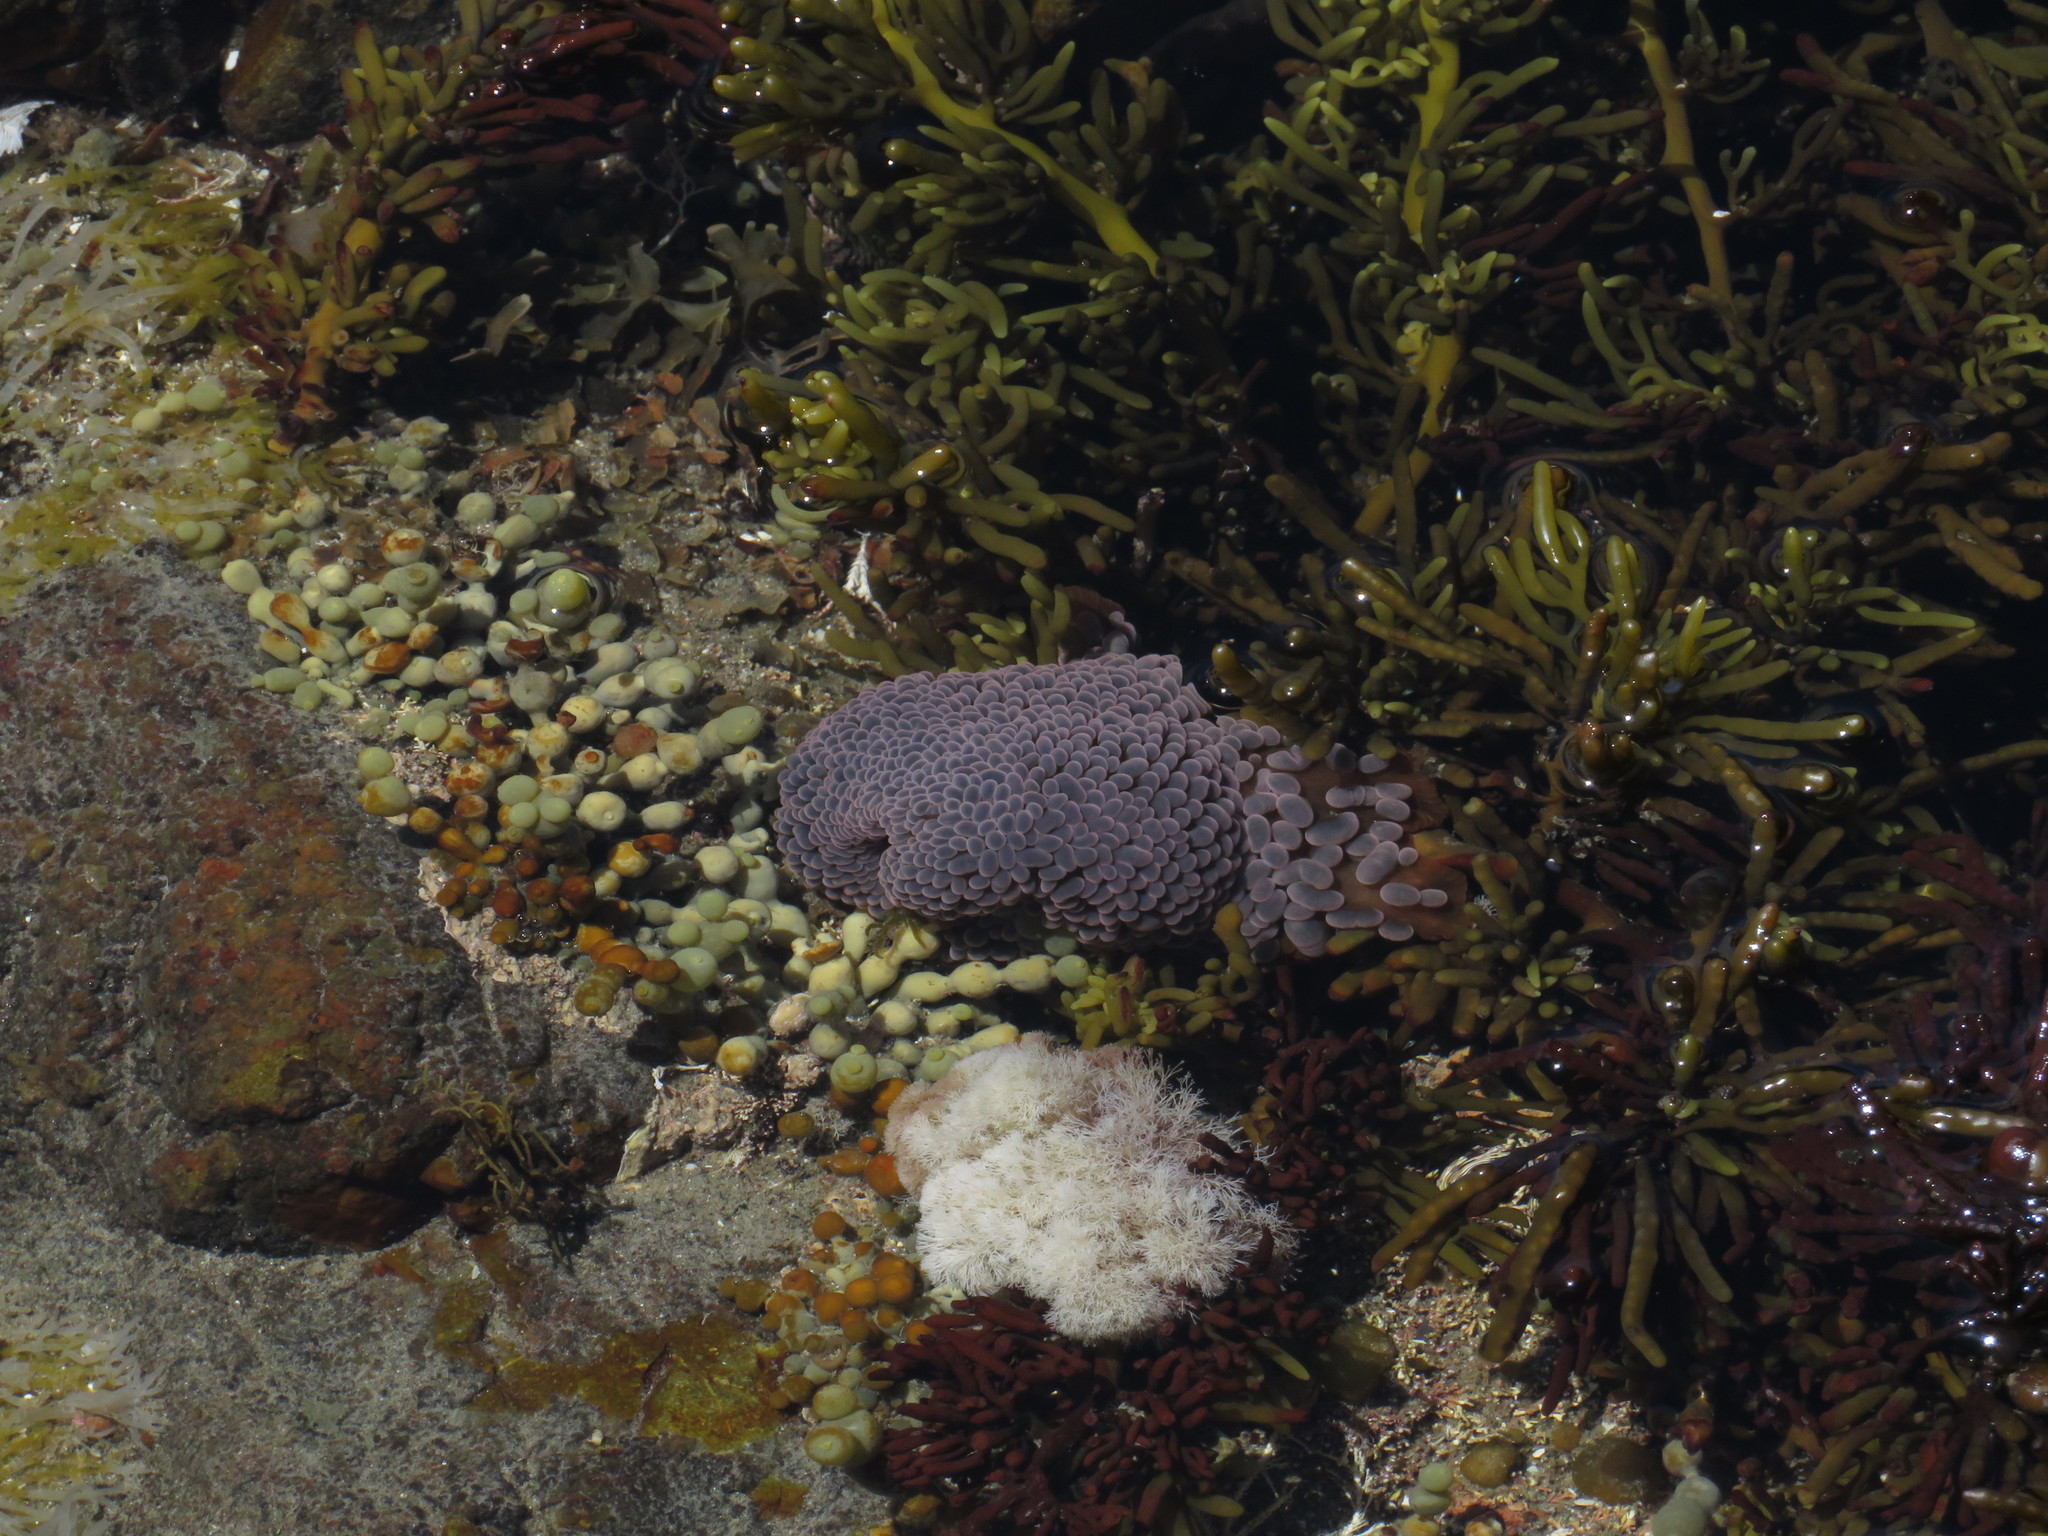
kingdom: Animalia
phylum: Cnidaria
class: Anthozoa
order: Actiniaria
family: Actiniidae
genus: Phlyctenactis
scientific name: Phlyctenactis tuberculosa
